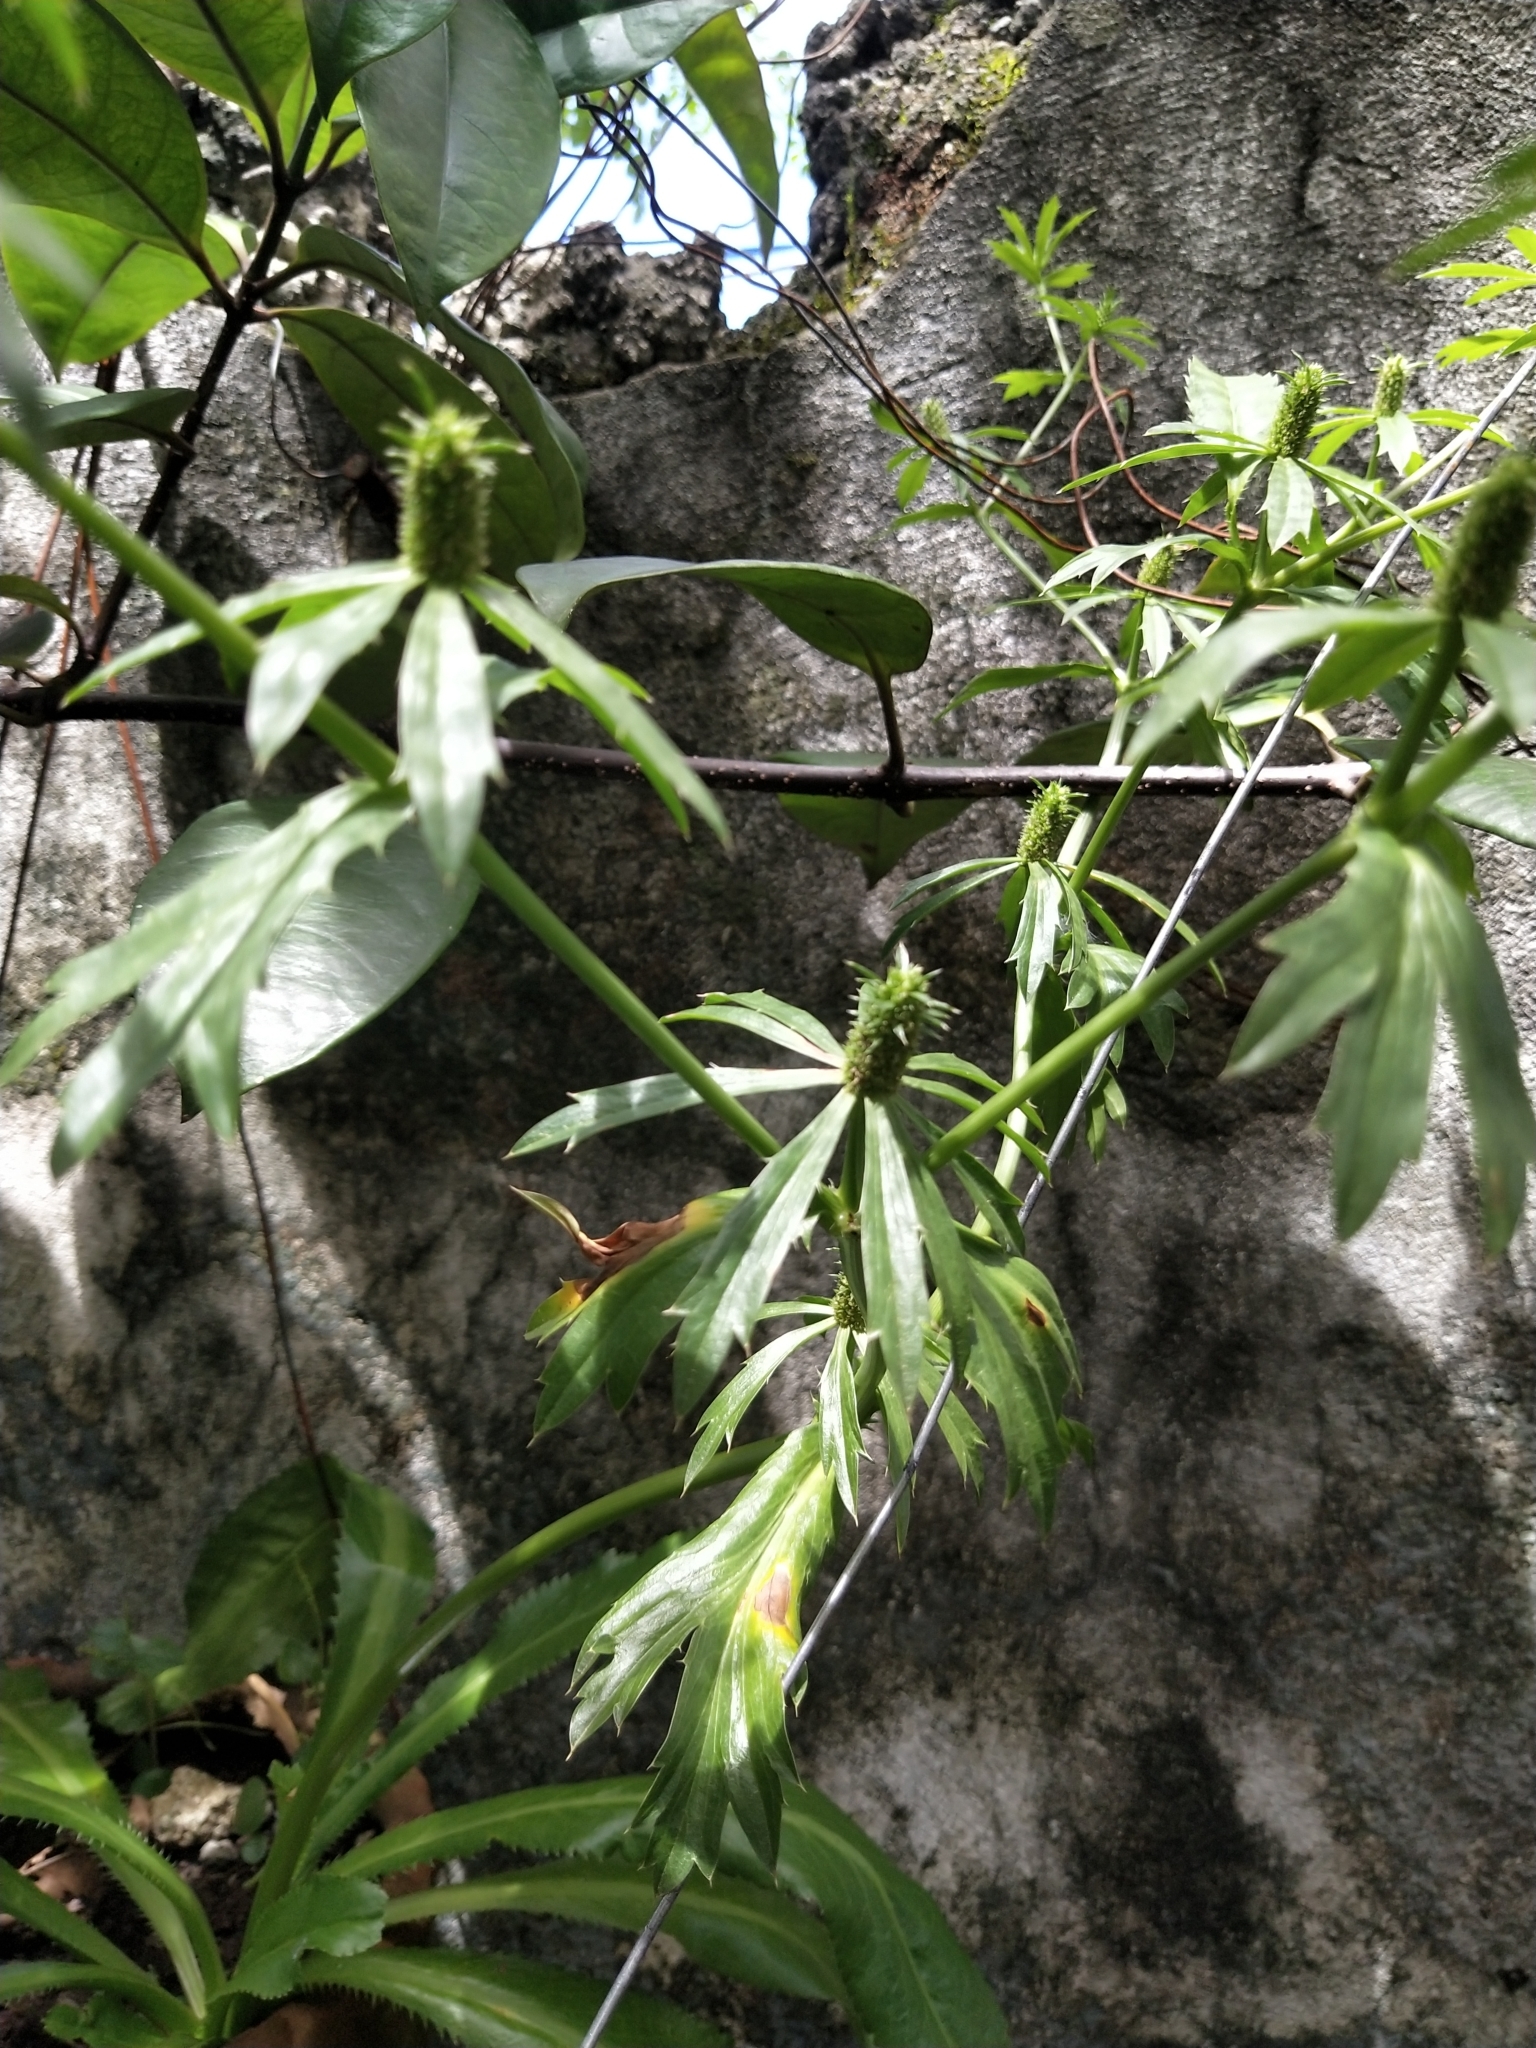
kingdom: Plantae
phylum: Tracheophyta
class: Magnoliopsida
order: Apiales
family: Apiaceae
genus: Eryngium
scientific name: Eryngium foetidum
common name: Fitweed
